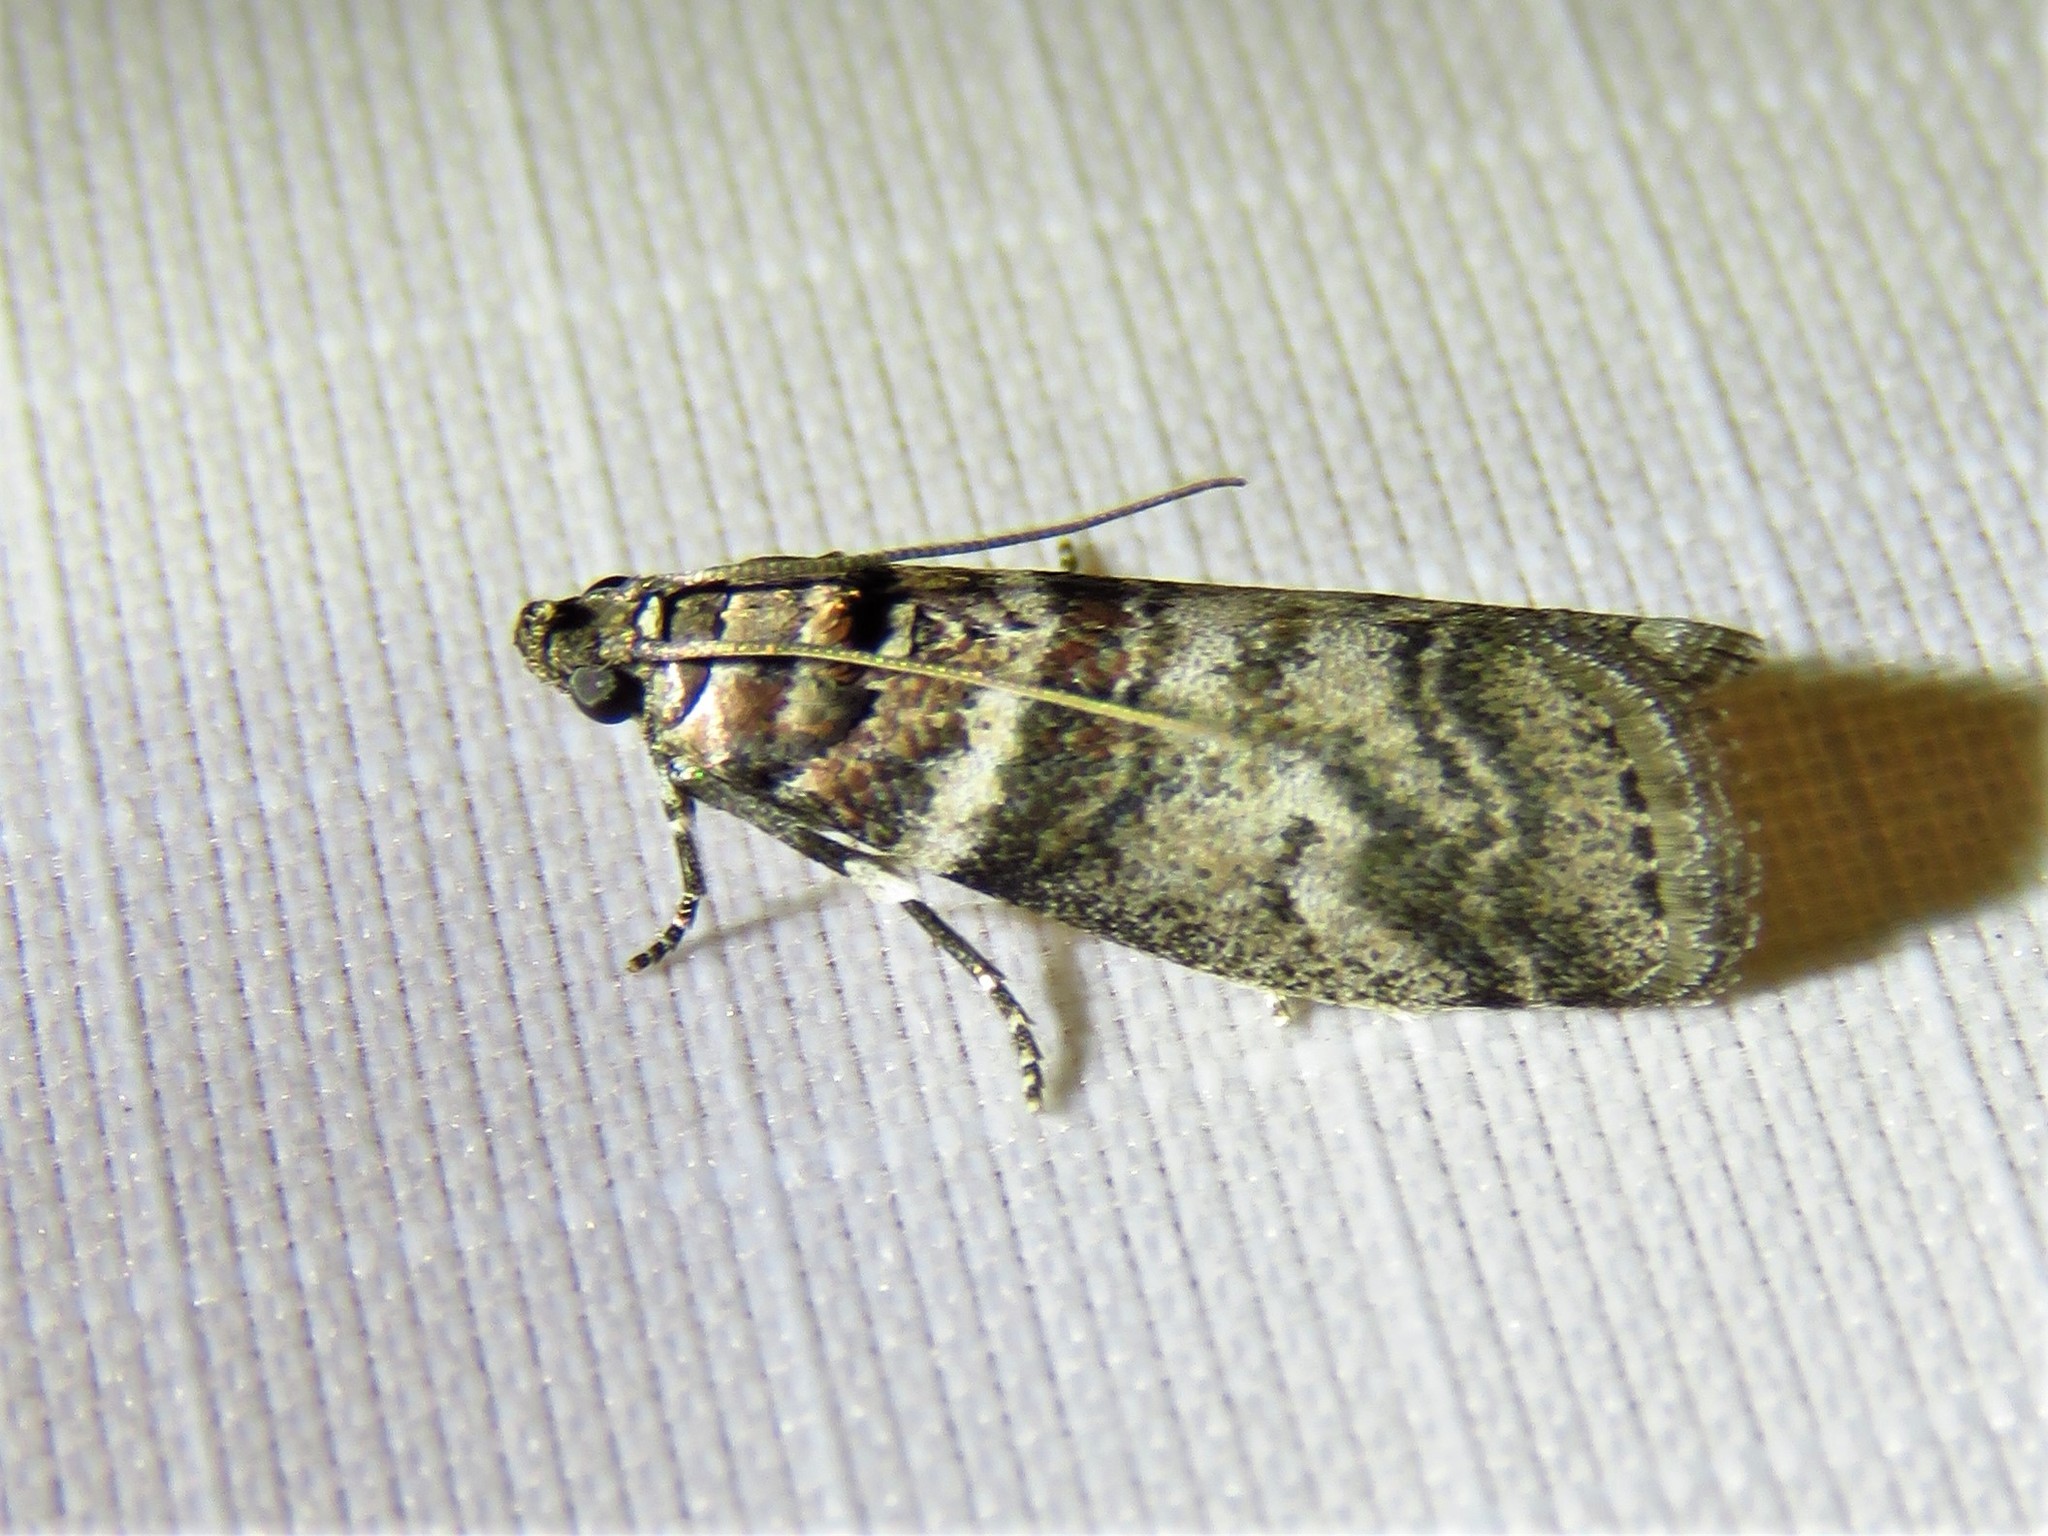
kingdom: Animalia
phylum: Arthropoda
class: Insecta
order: Lepidoptera
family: Pyralidae
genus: Sciota
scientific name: Sciota uvinella
